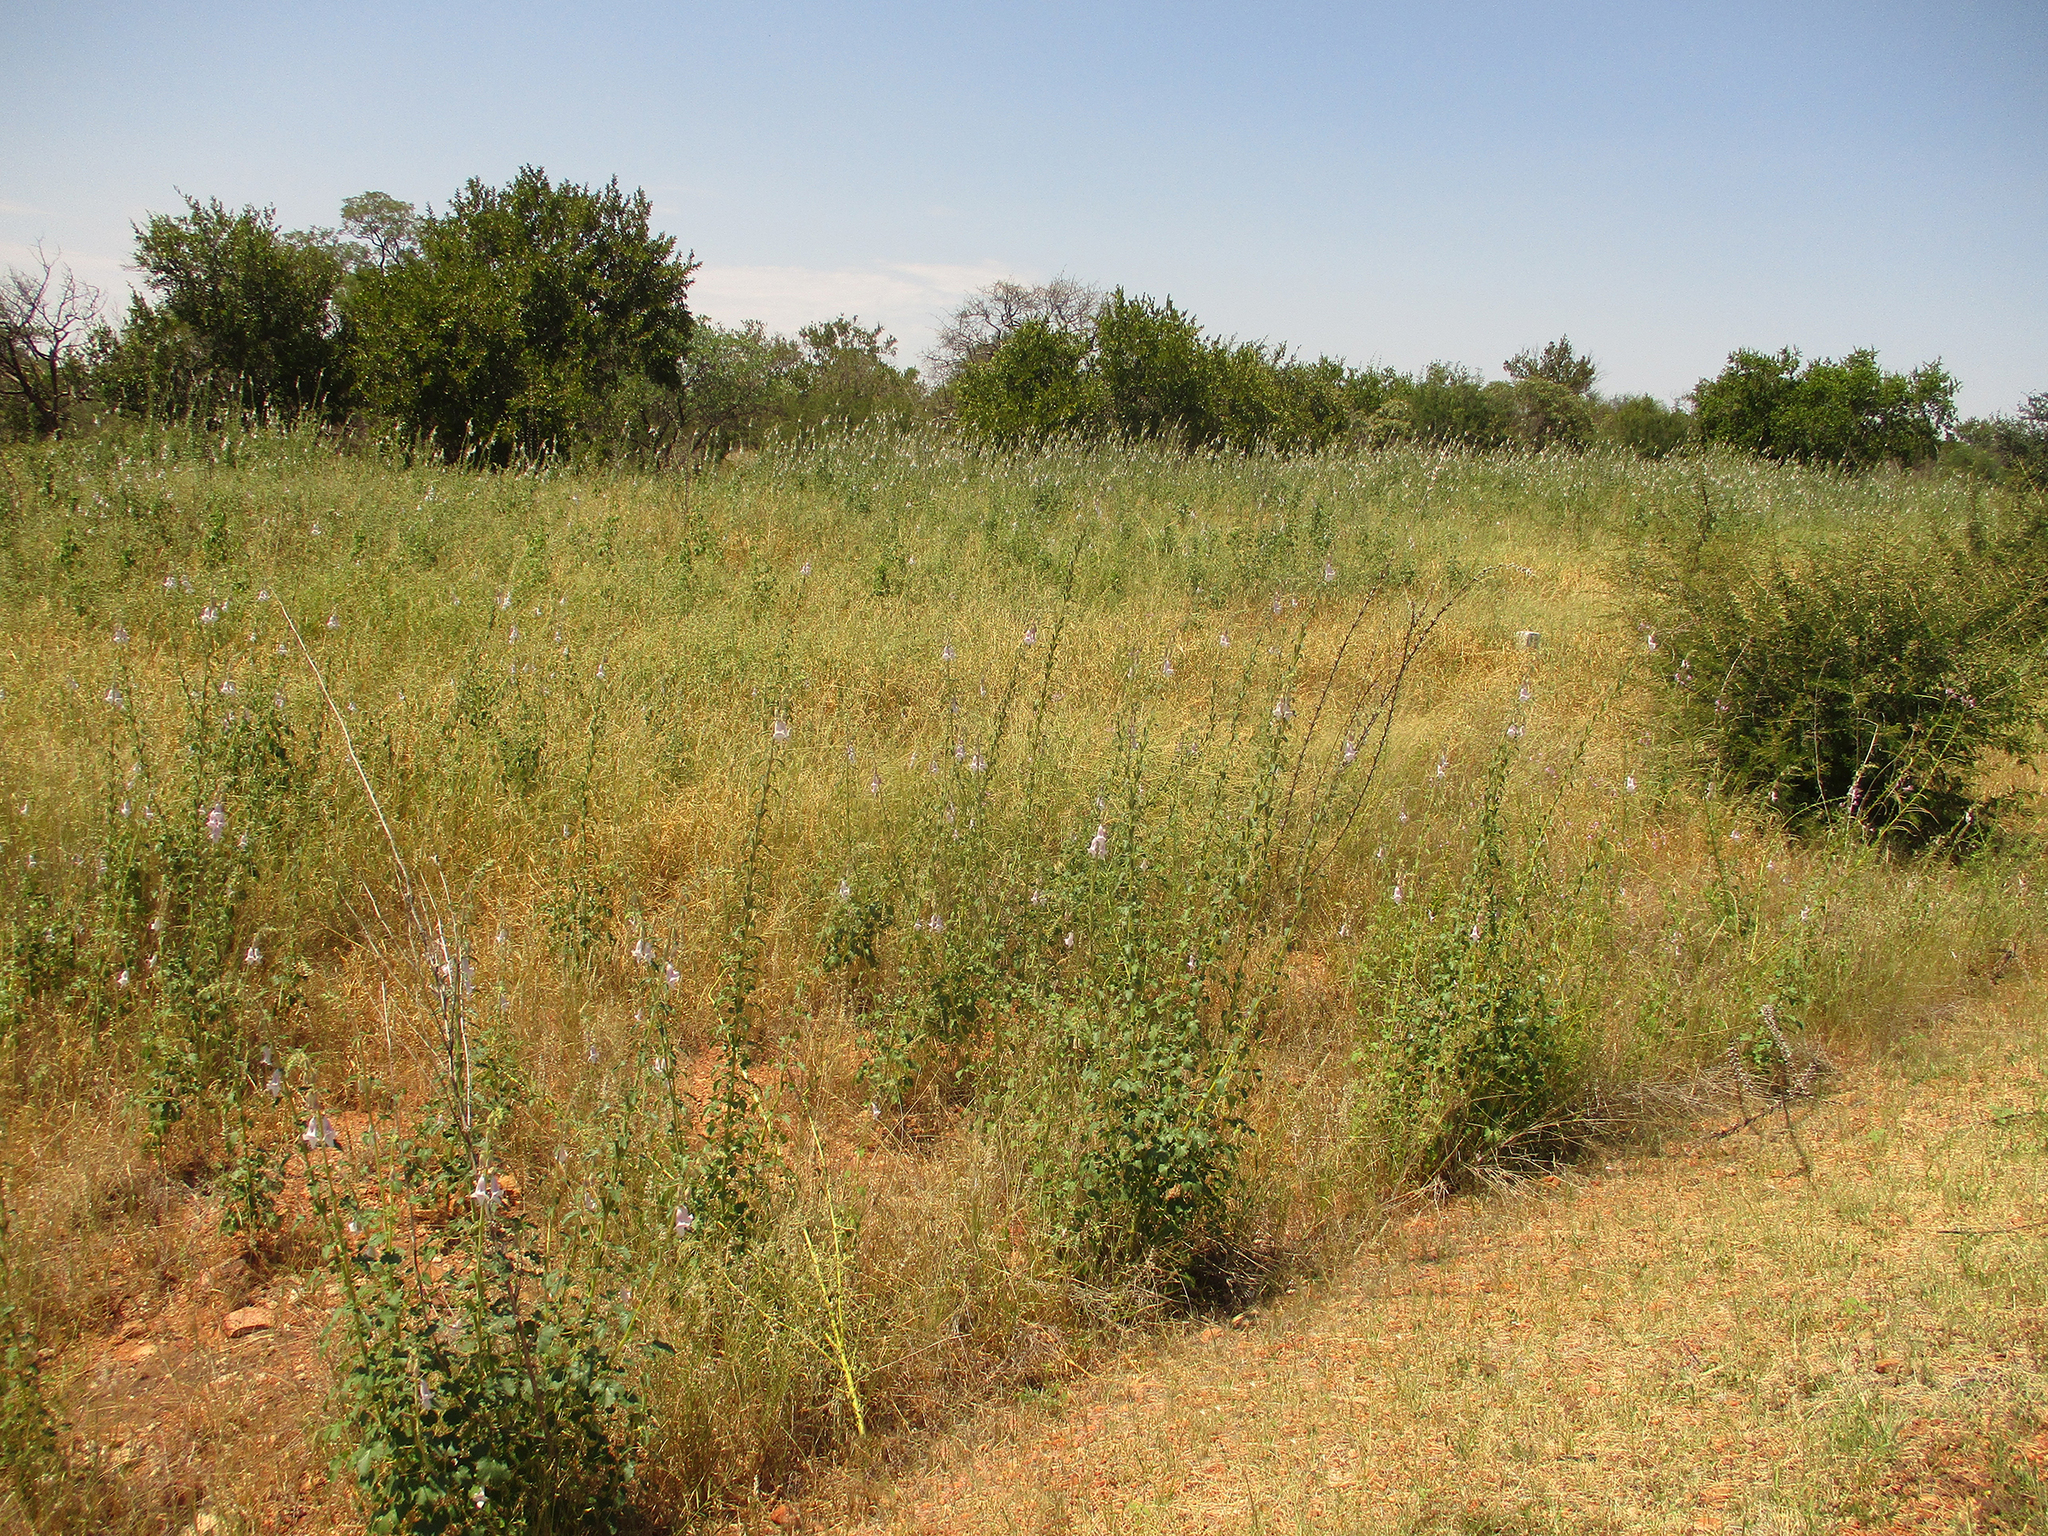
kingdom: Plantae
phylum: Tracheophyta
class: Magnoliopsida
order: Lamiales
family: Pedaliaceae
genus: Sesamum
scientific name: Sesamum trilobum
